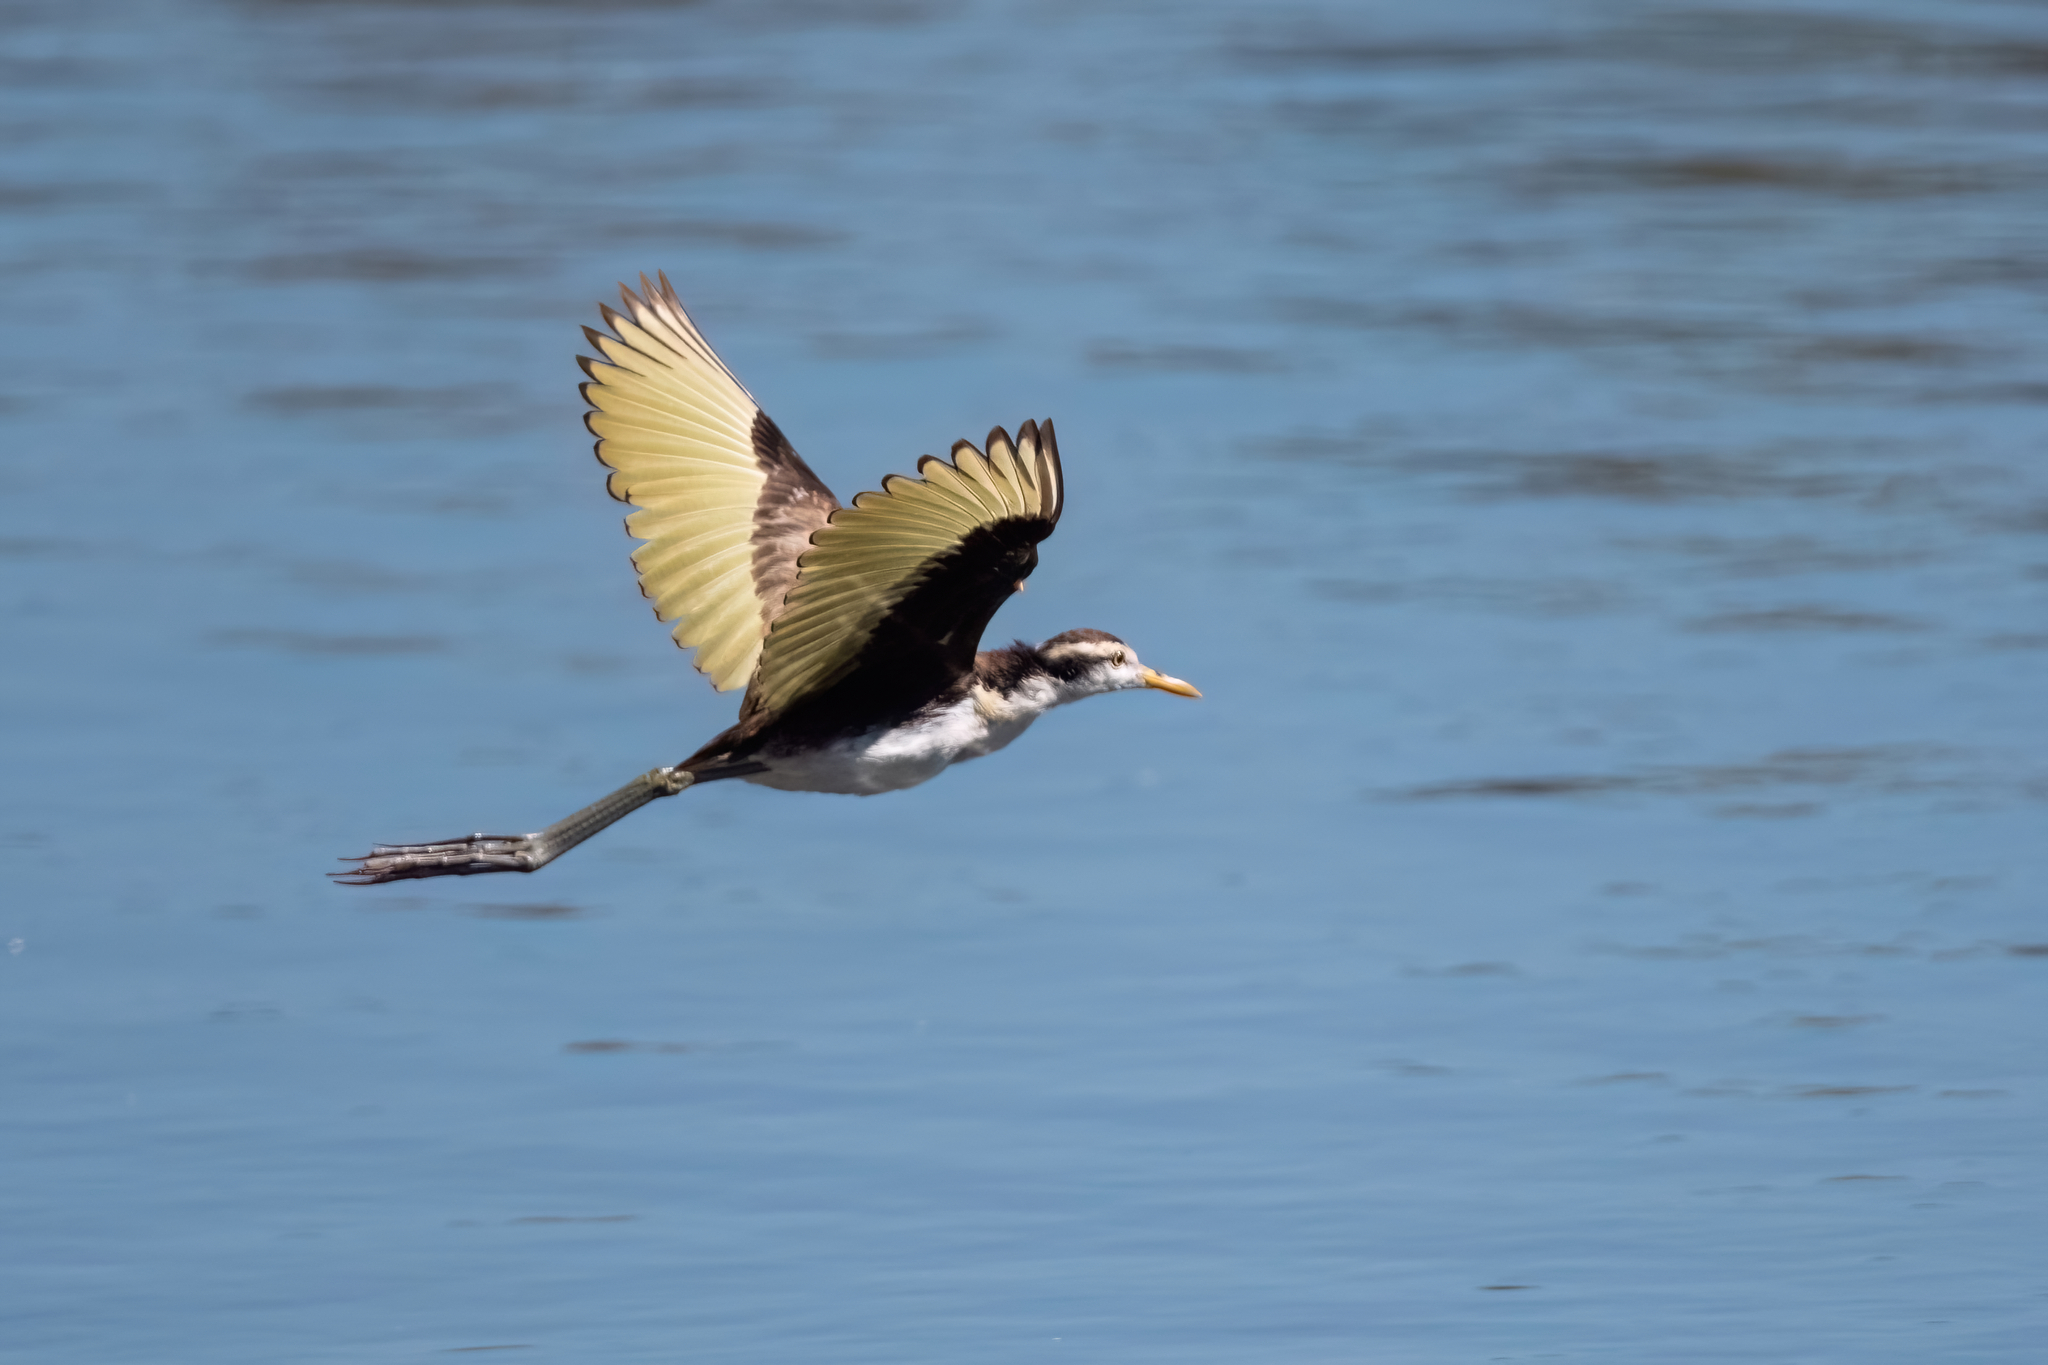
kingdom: Animalia
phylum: Chordata
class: Aves
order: Charadriiformes
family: Jacanidae
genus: Jacana
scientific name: Jacana spinosa
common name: Northern jacana
